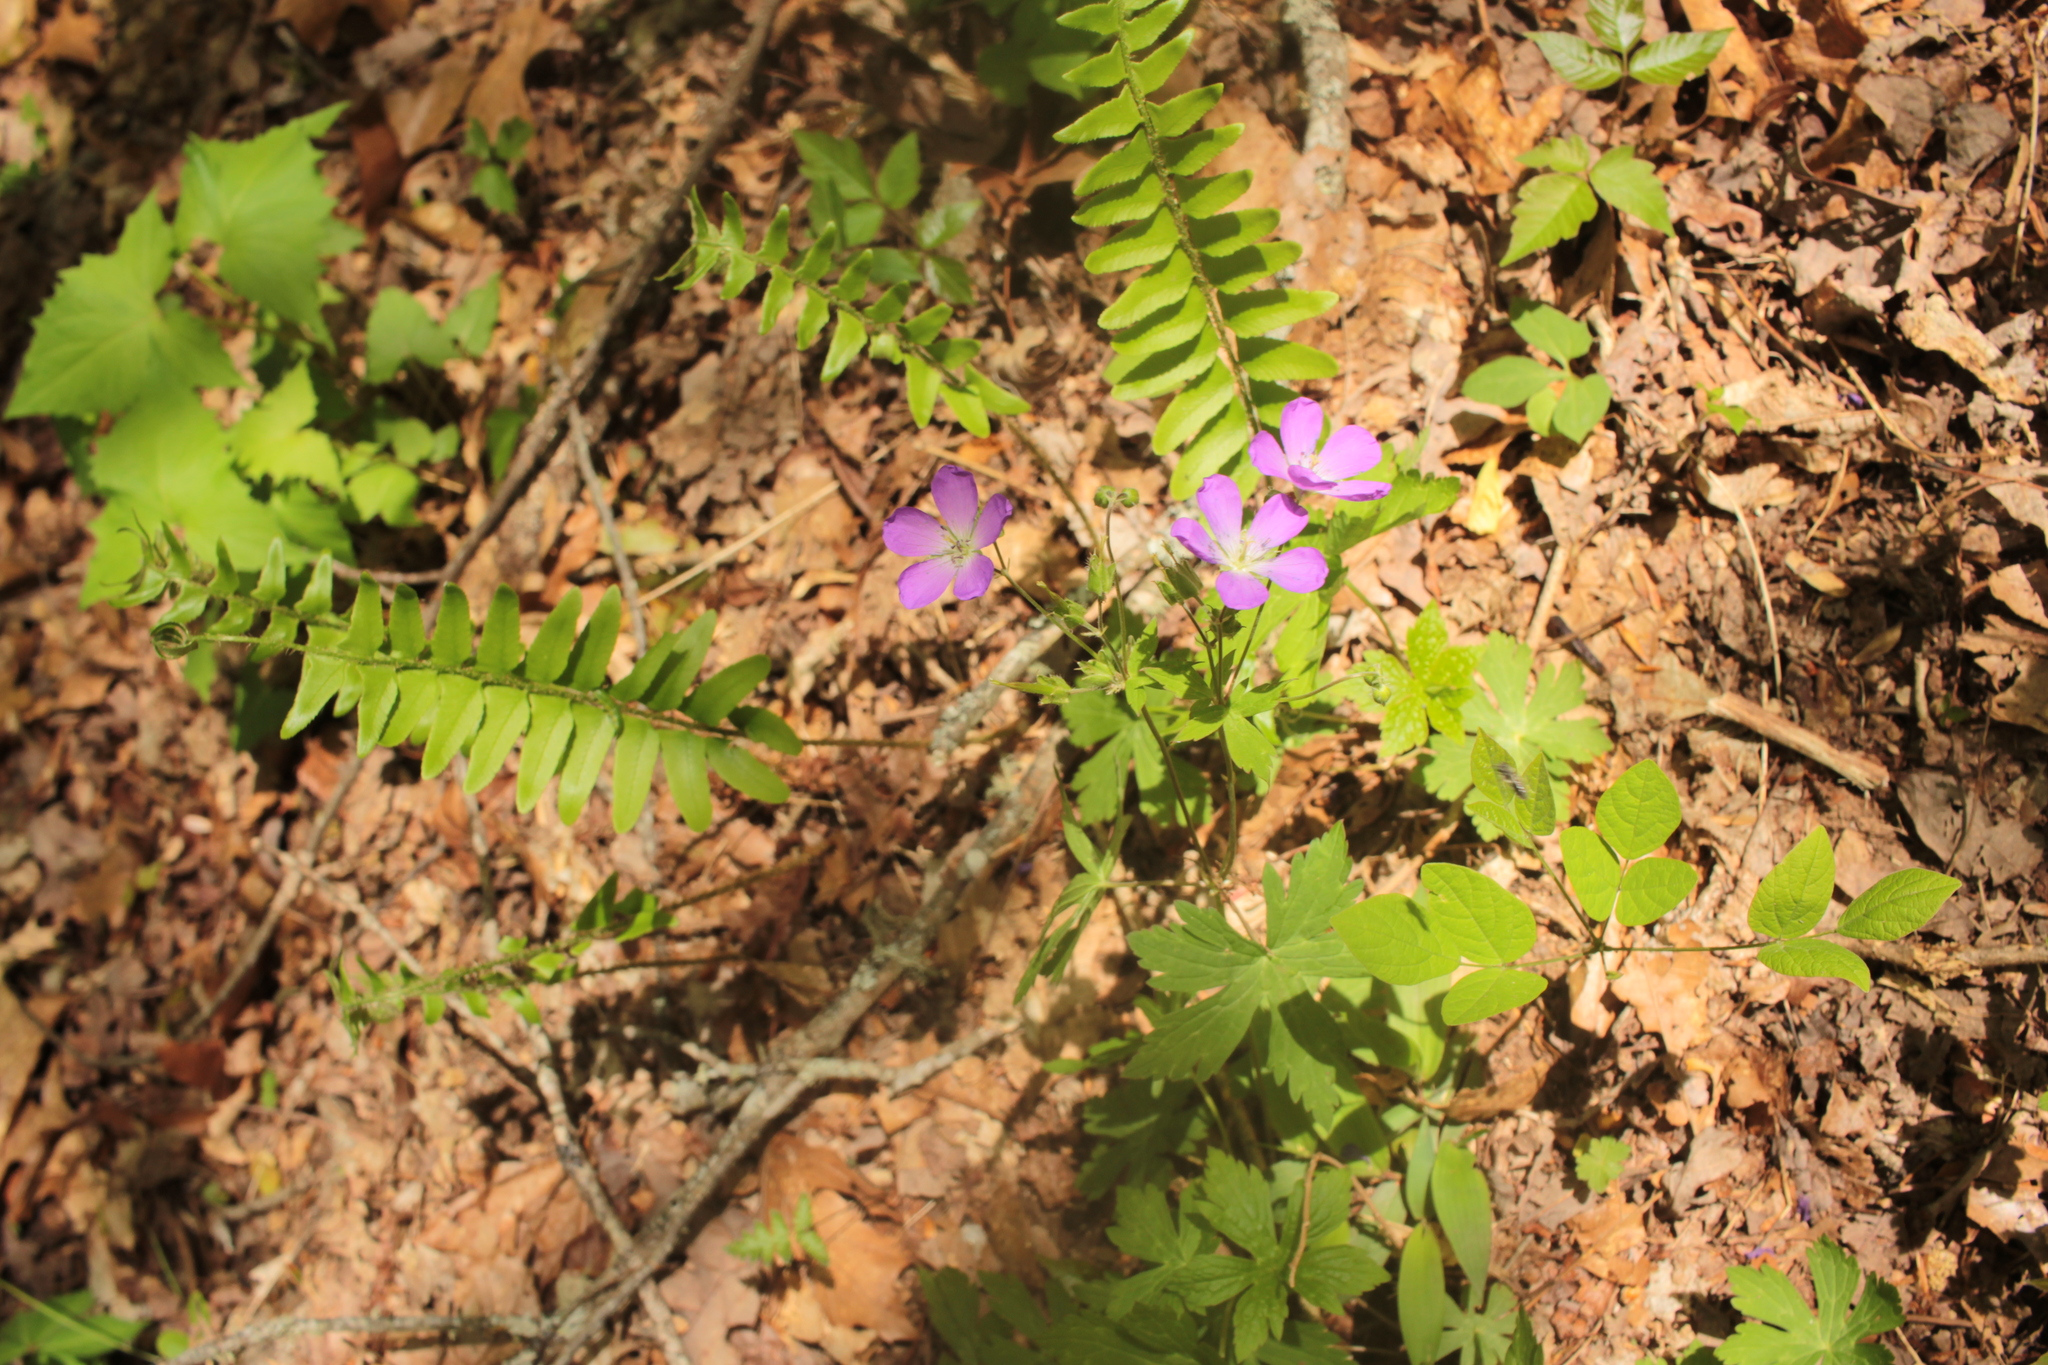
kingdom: Plantae
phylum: Tracheophyta
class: Magnoliopsida
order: Geraniales
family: Geraniaceae
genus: Geranium
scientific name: Geranium maculatum
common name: Spotted geranium
